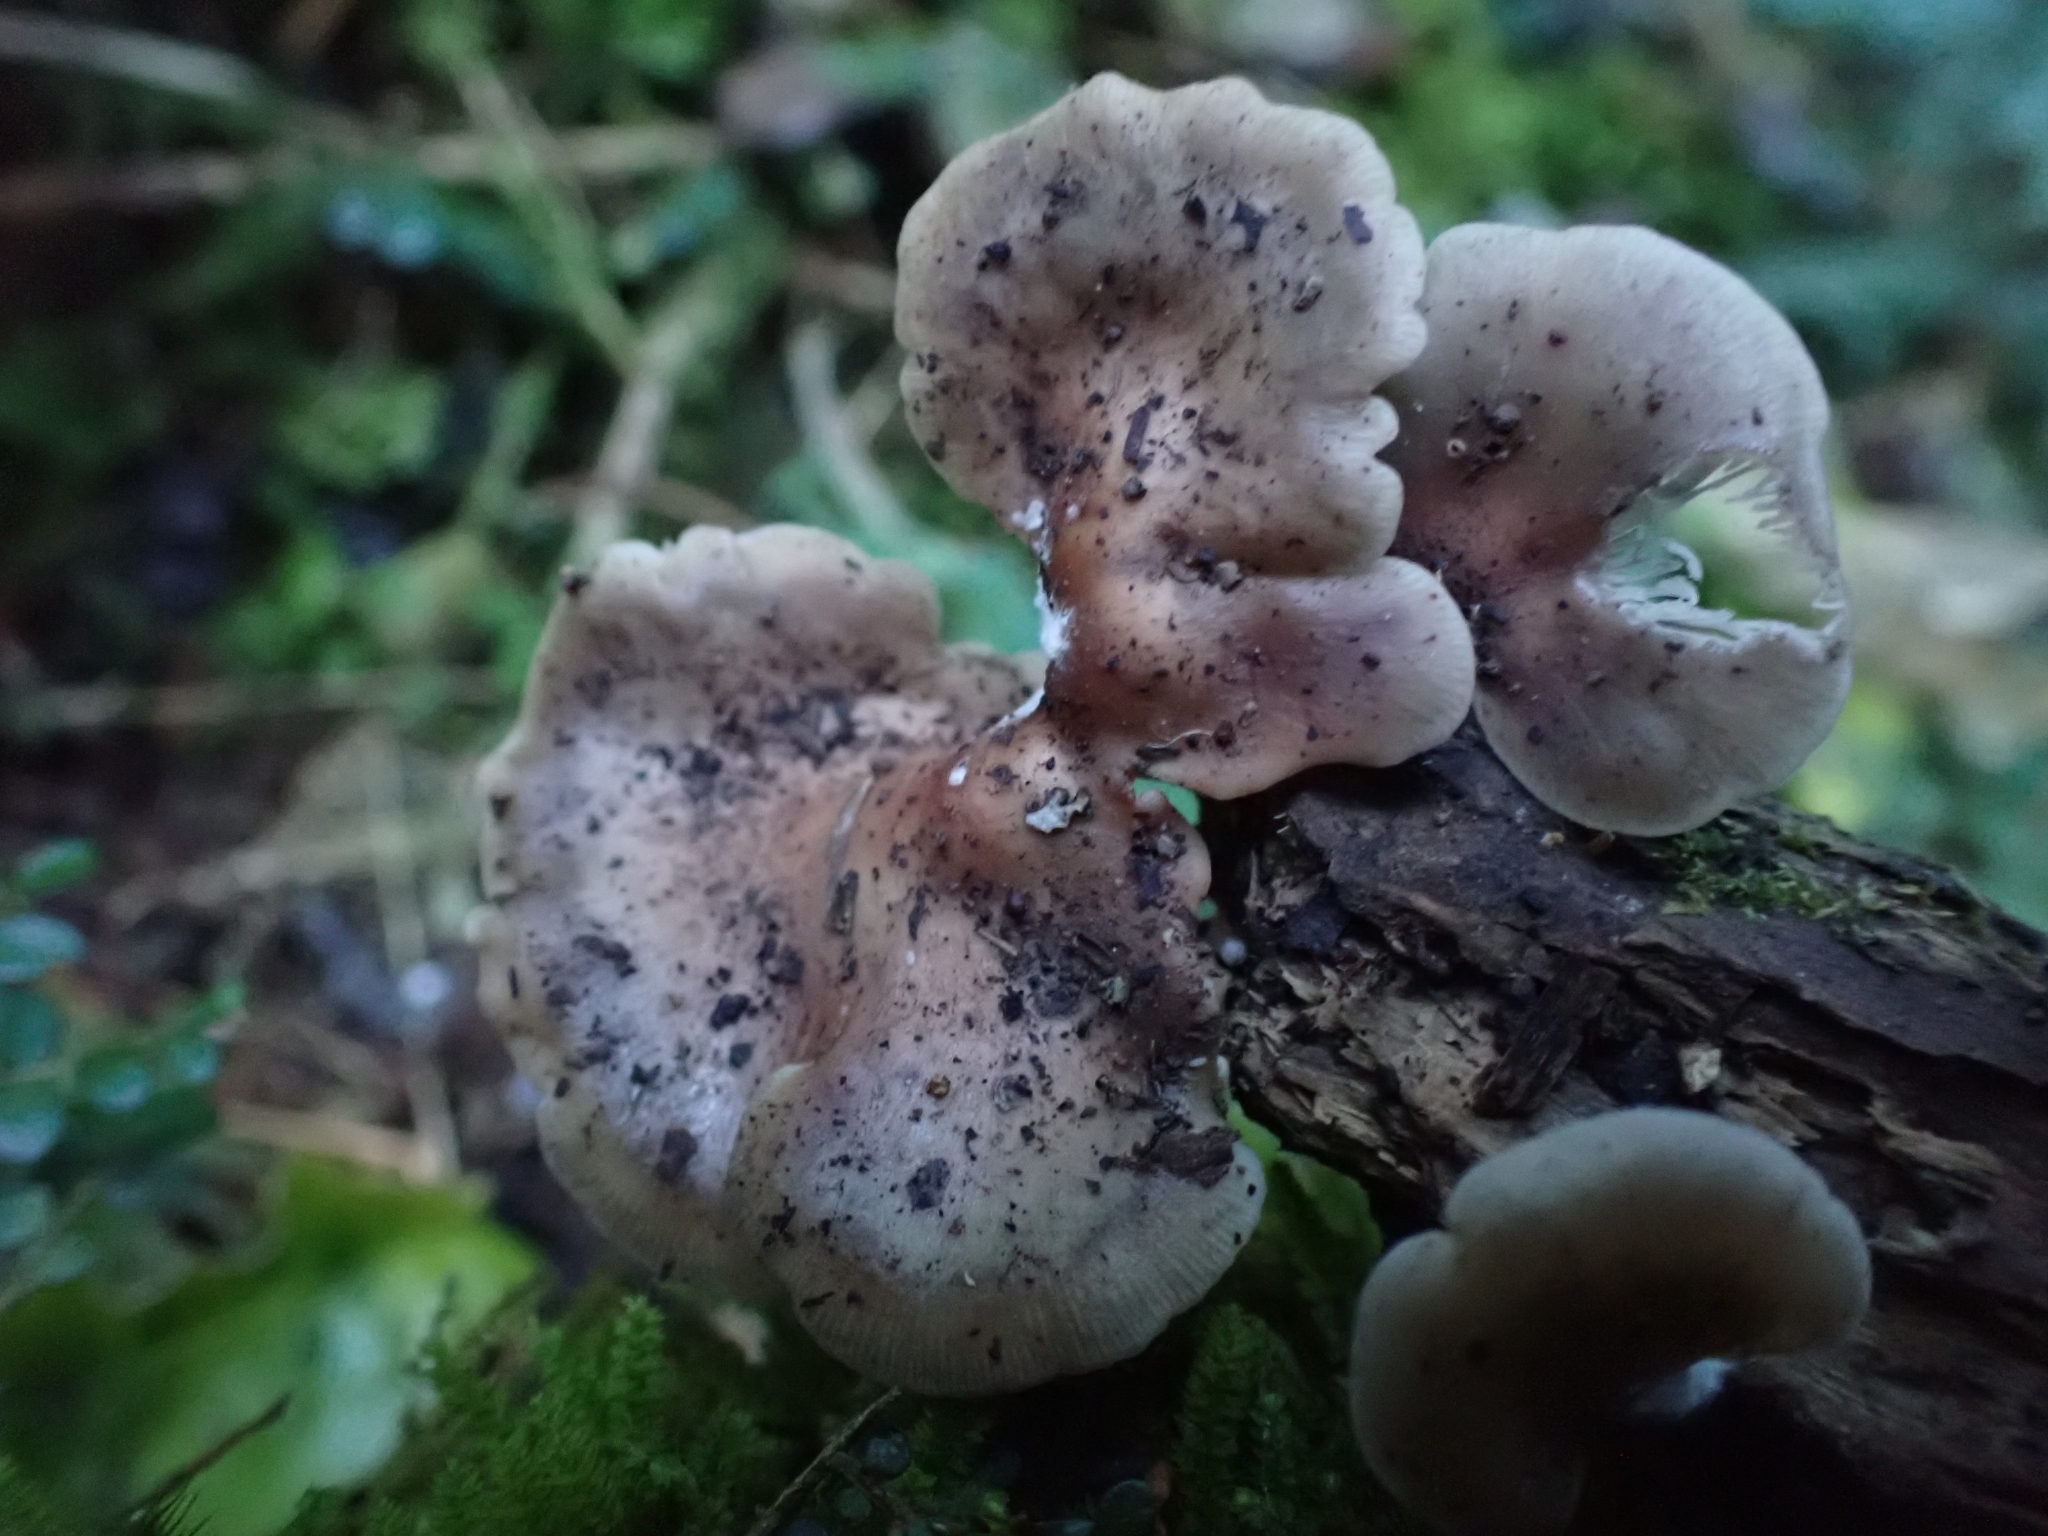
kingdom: Fungi
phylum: Basidiomycota
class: Agaricomycetes
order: Agaricales
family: Mycenaceae
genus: Panellus
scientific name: Panellus longinquus
